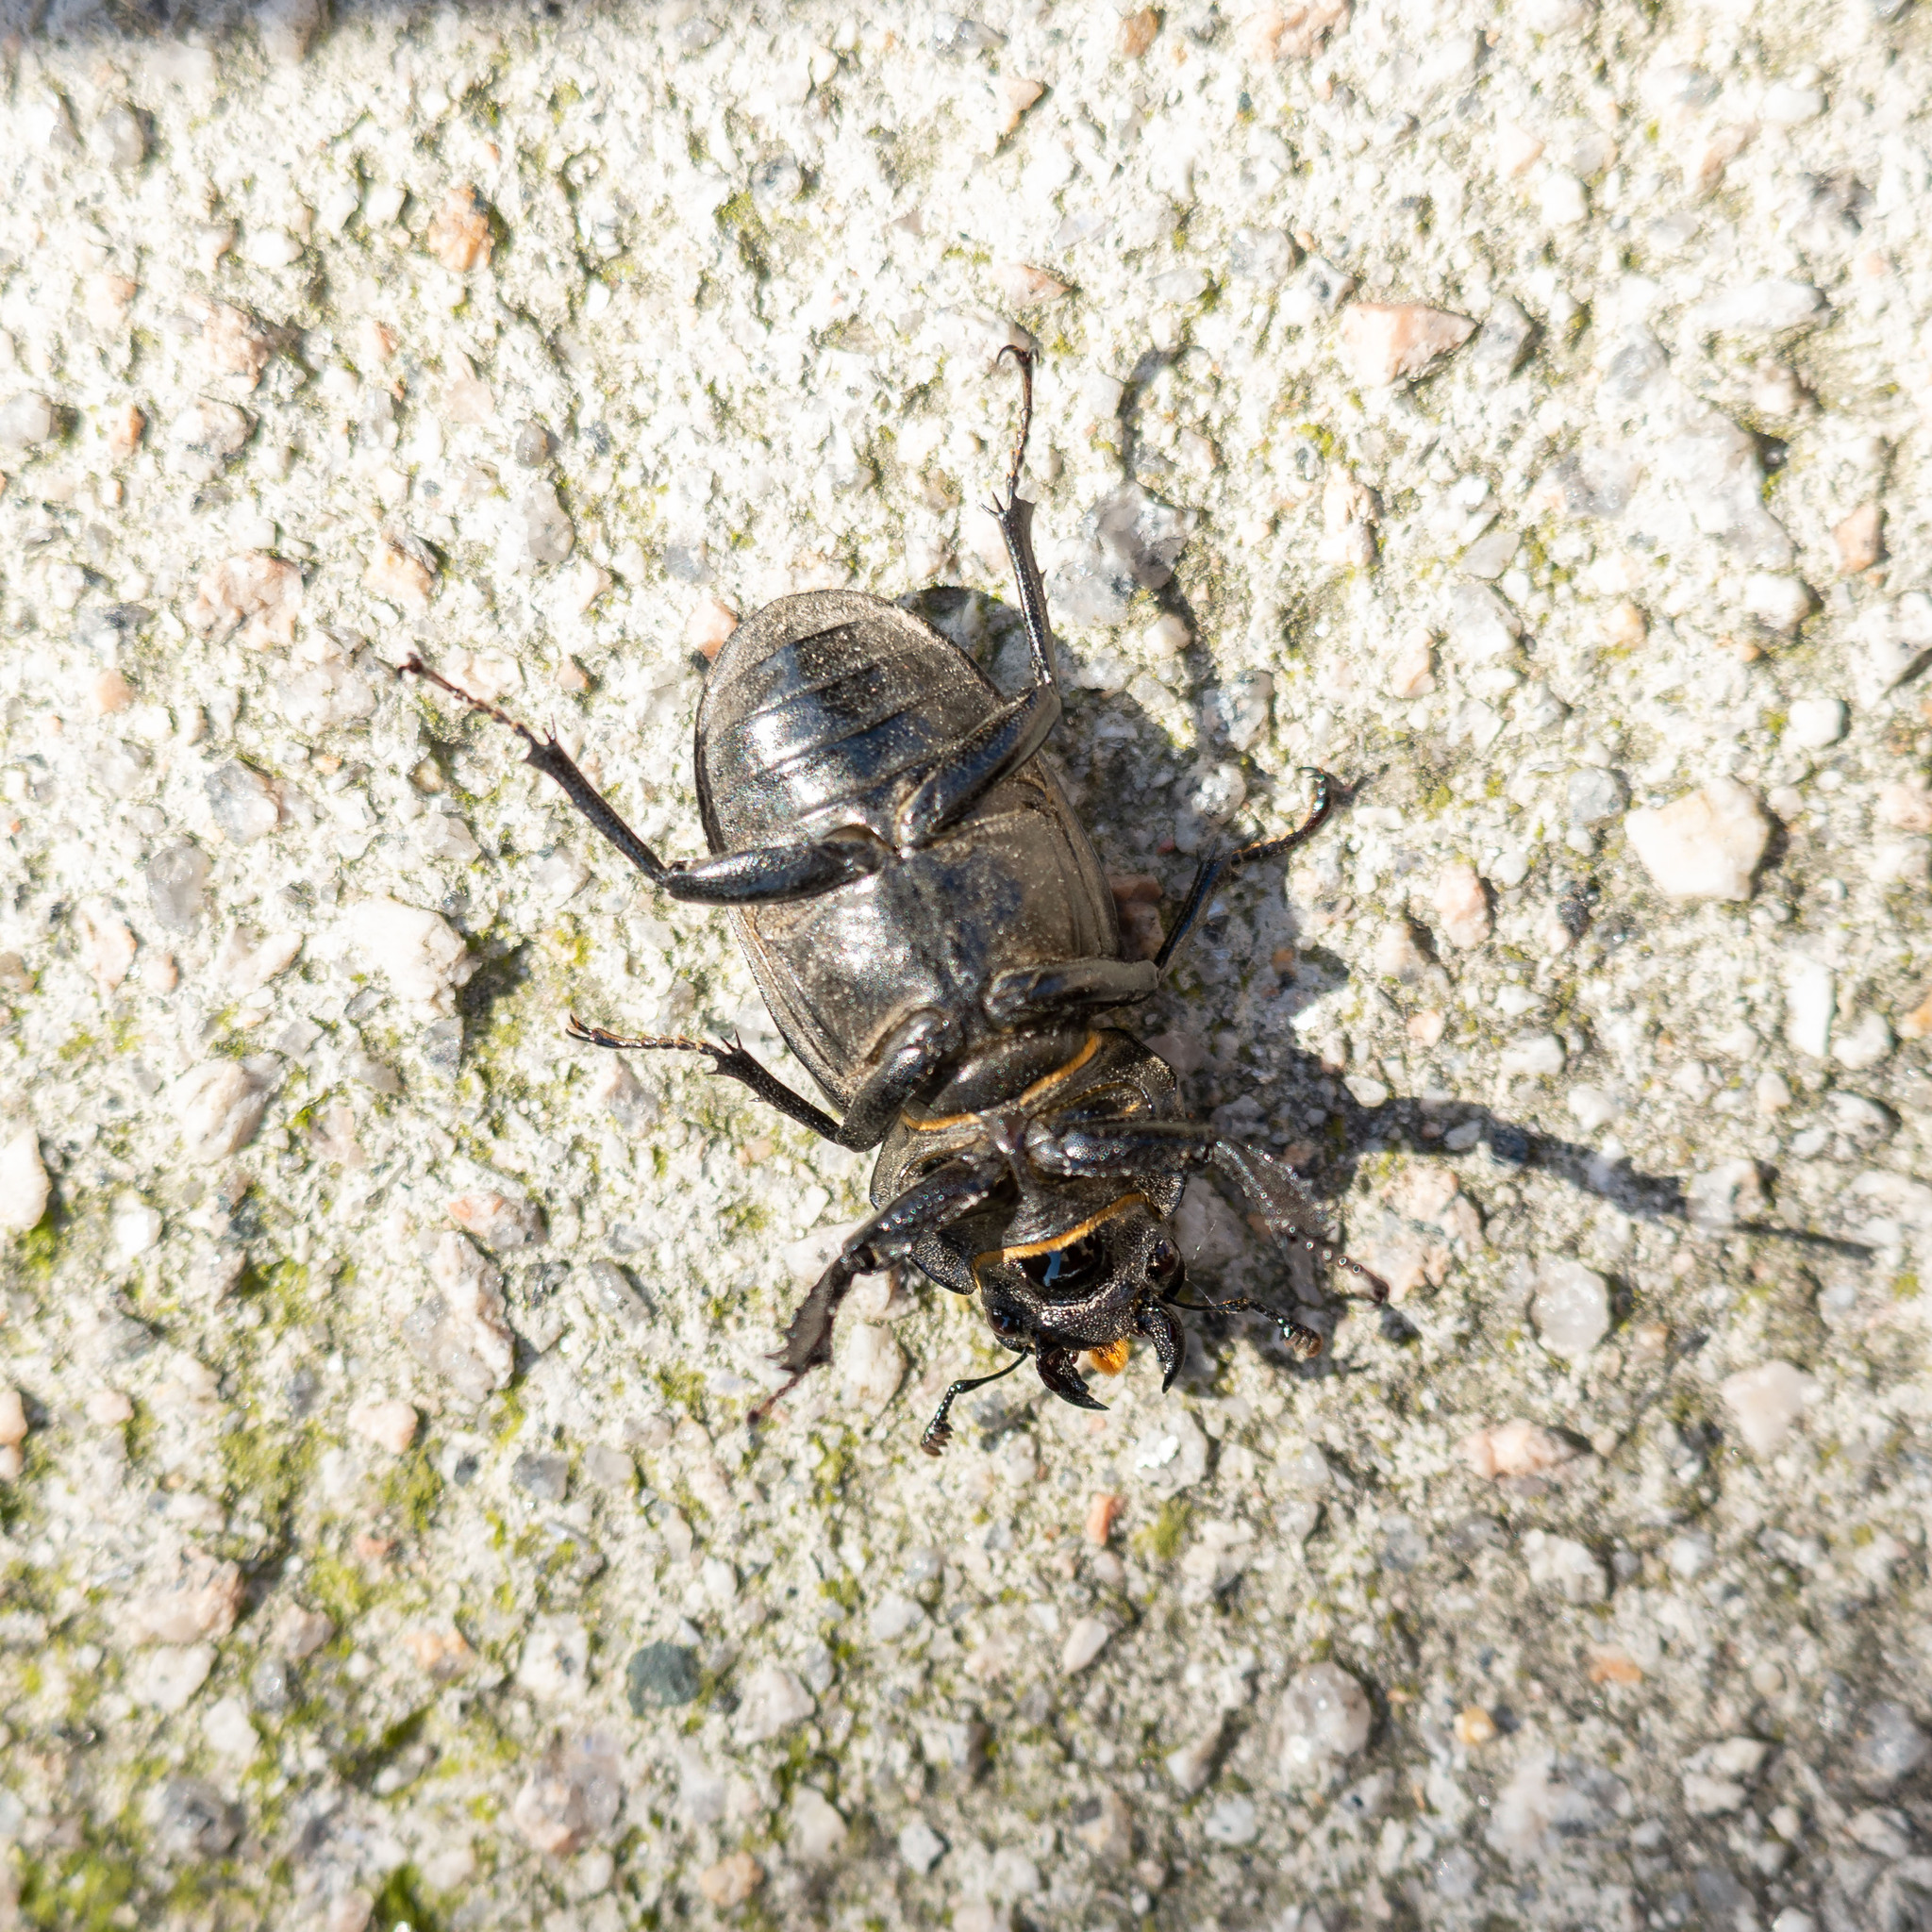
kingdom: Animalia
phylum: Arthropoda
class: Insecta
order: Coleoptera
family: Lucanidae
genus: Lucanus
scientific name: Lucanus cervus
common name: Stag beetle
